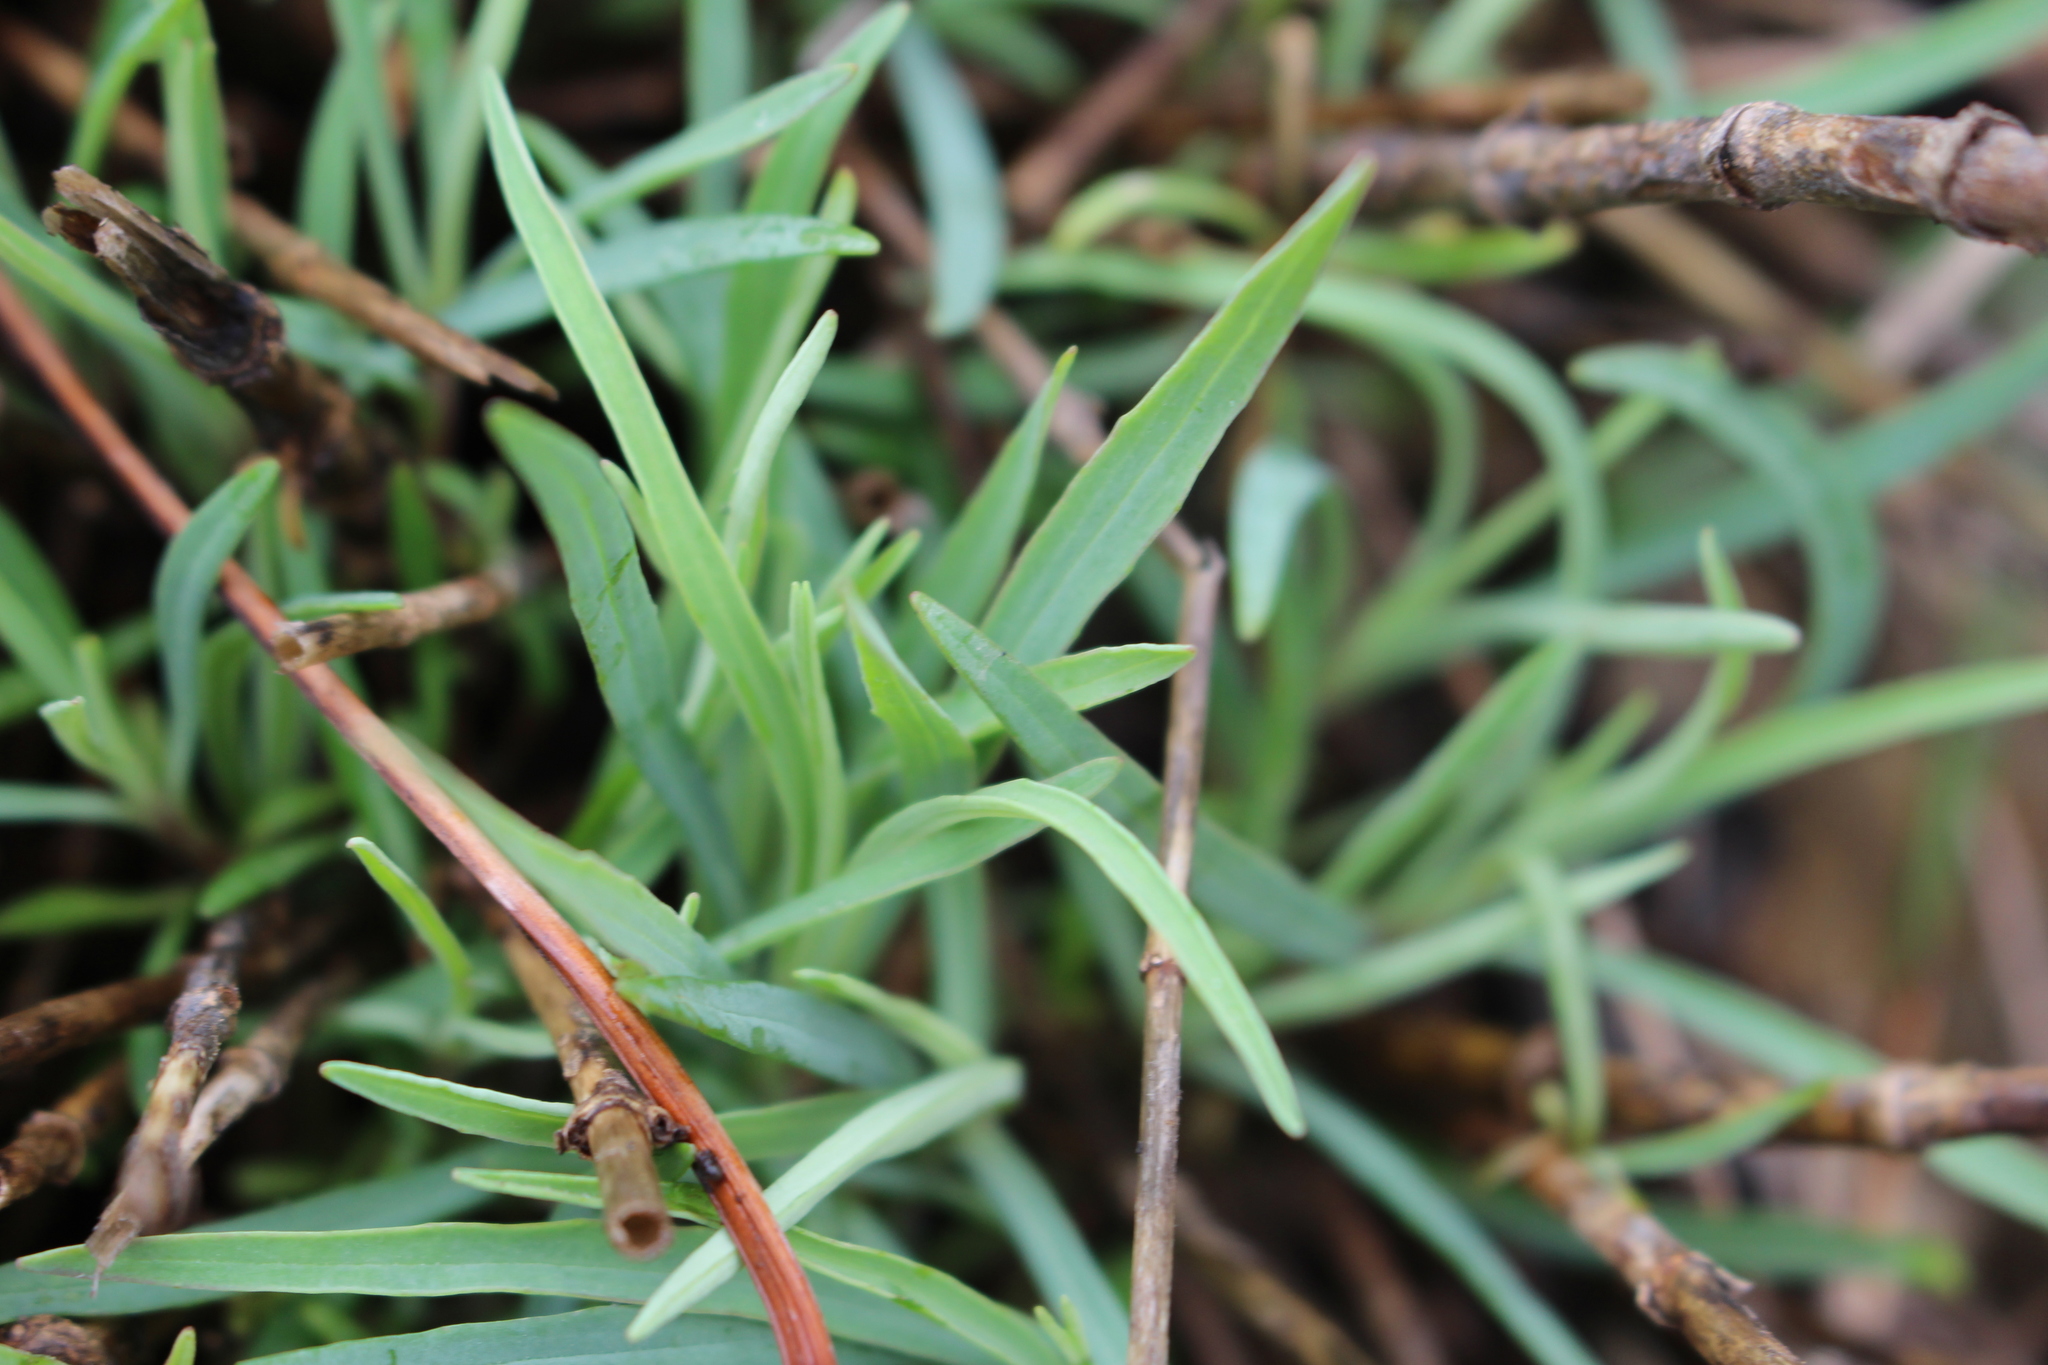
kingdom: Plantae
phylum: Tracheophyta
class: Magnoliopsida
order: Dipsacales
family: Caprifoliaceae
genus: Centranthus
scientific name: Centranthus lecoqii
